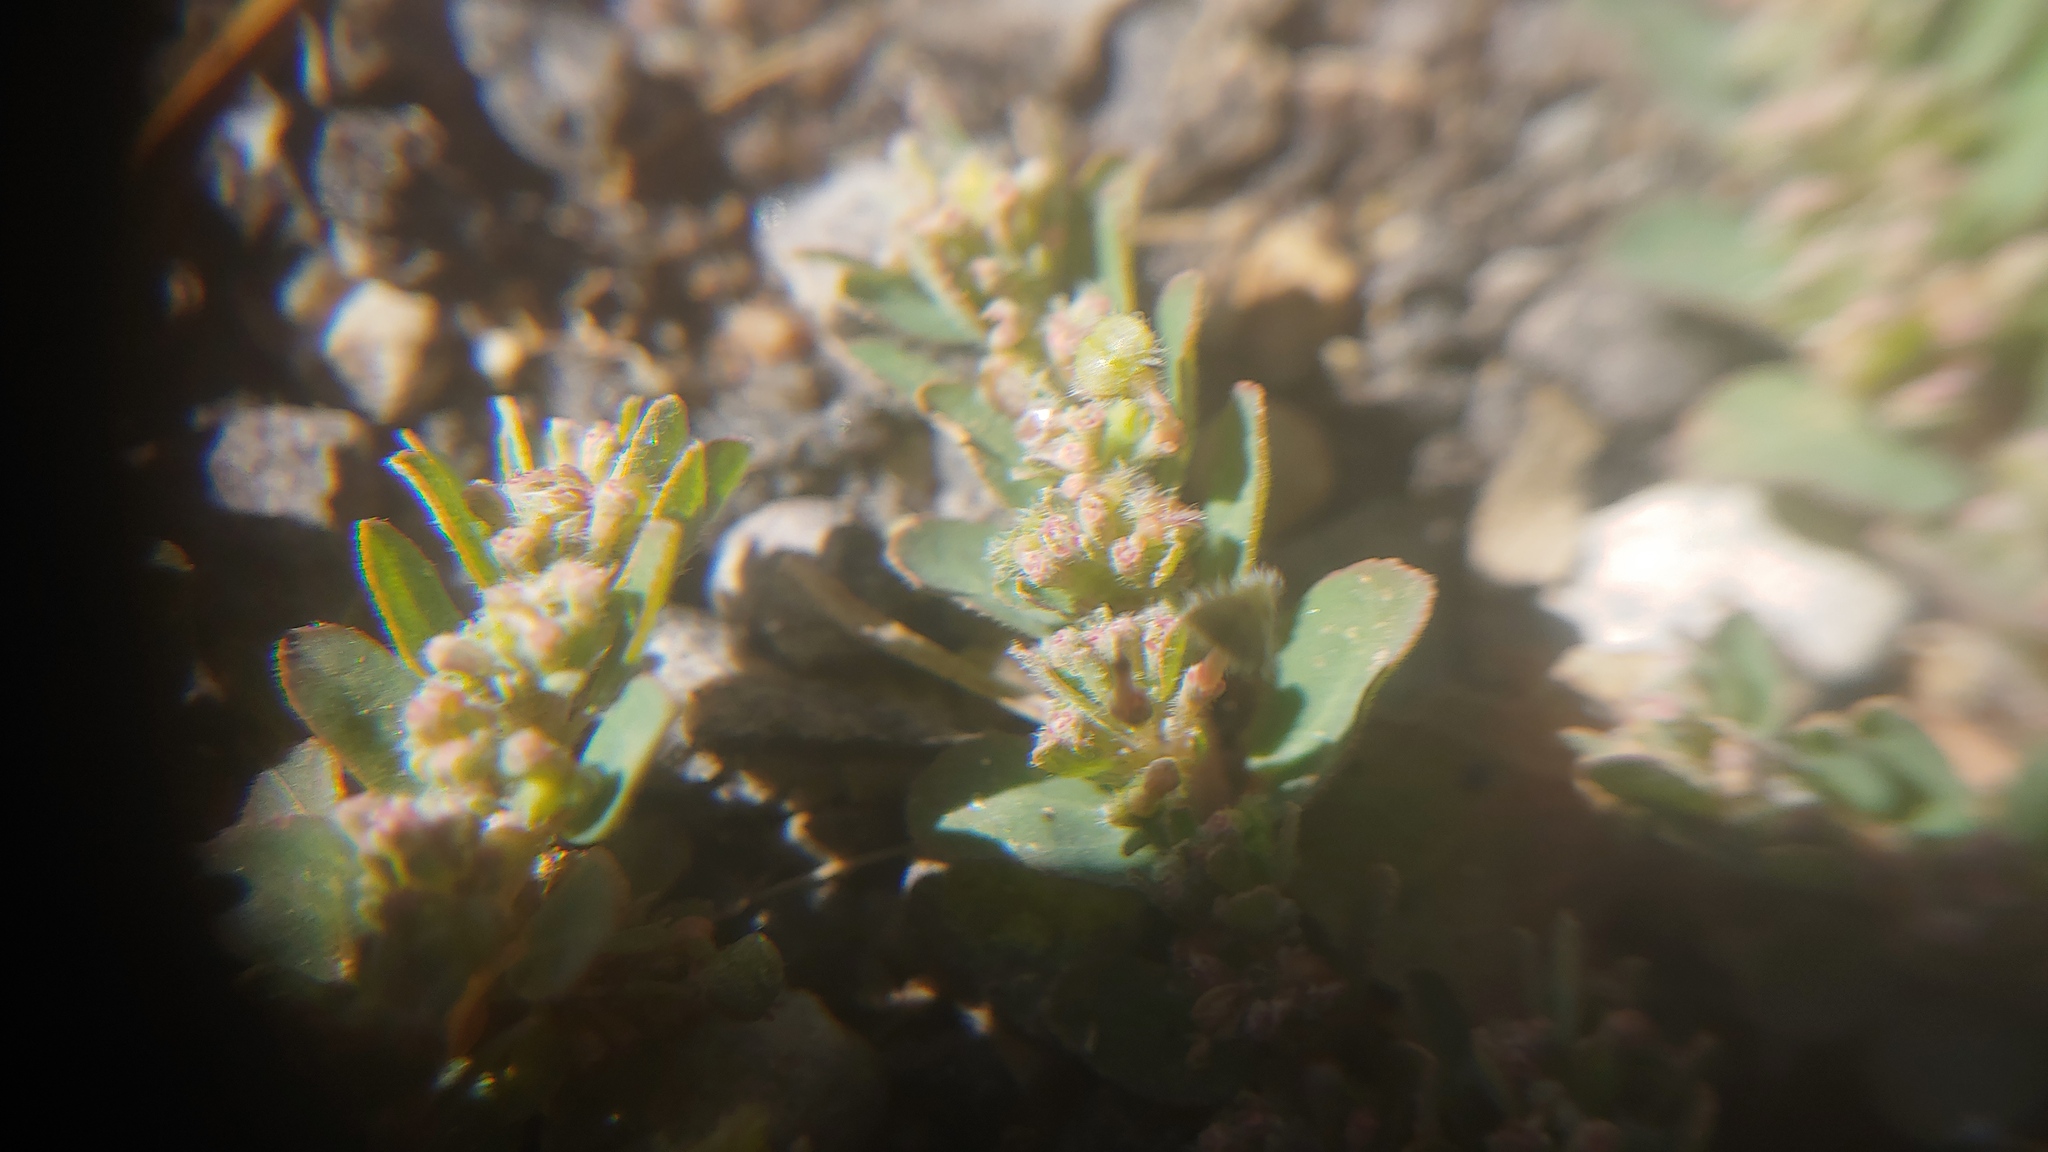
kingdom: Plantae
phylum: Tracheophyta
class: Magnoliopsida
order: Malpighiales
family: Euphorbiaceae
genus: Euphorbia
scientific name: Euphorbia prostrata
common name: Prostrate sandmat
